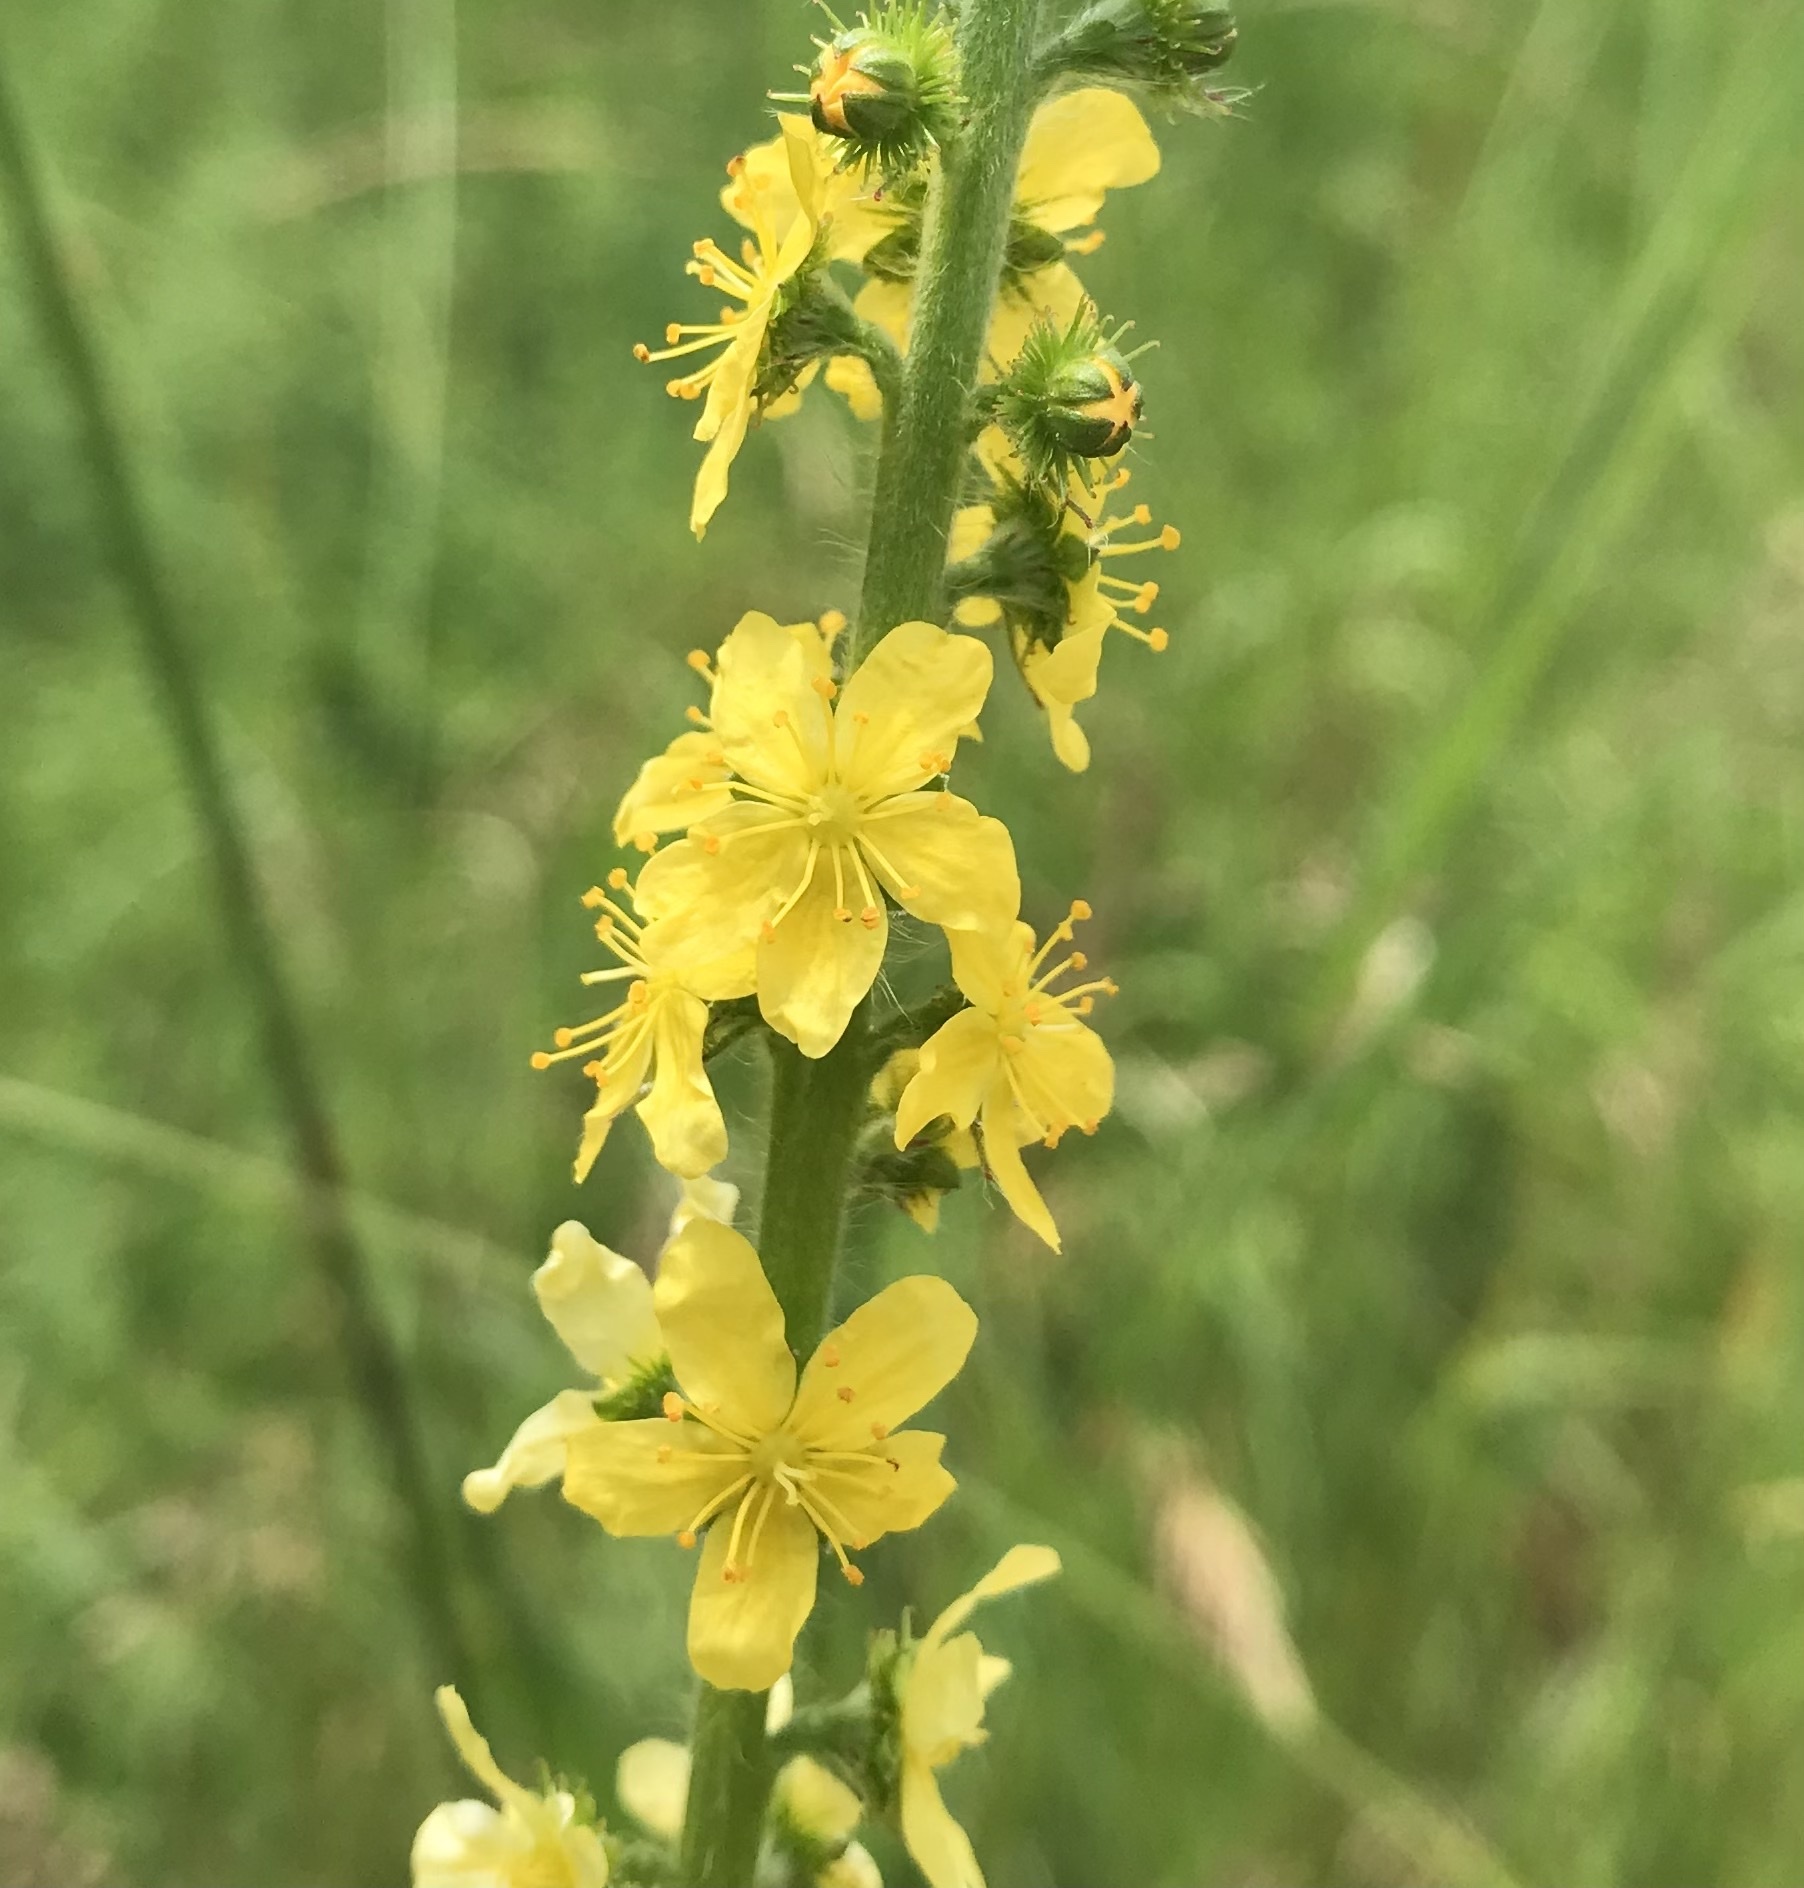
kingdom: Plantae
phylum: Tracheophyta
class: Magnoliopsida
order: Rosales
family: Rosaceae
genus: Agrimonia
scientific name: Agrimonia eupatoria
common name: Agrimony
